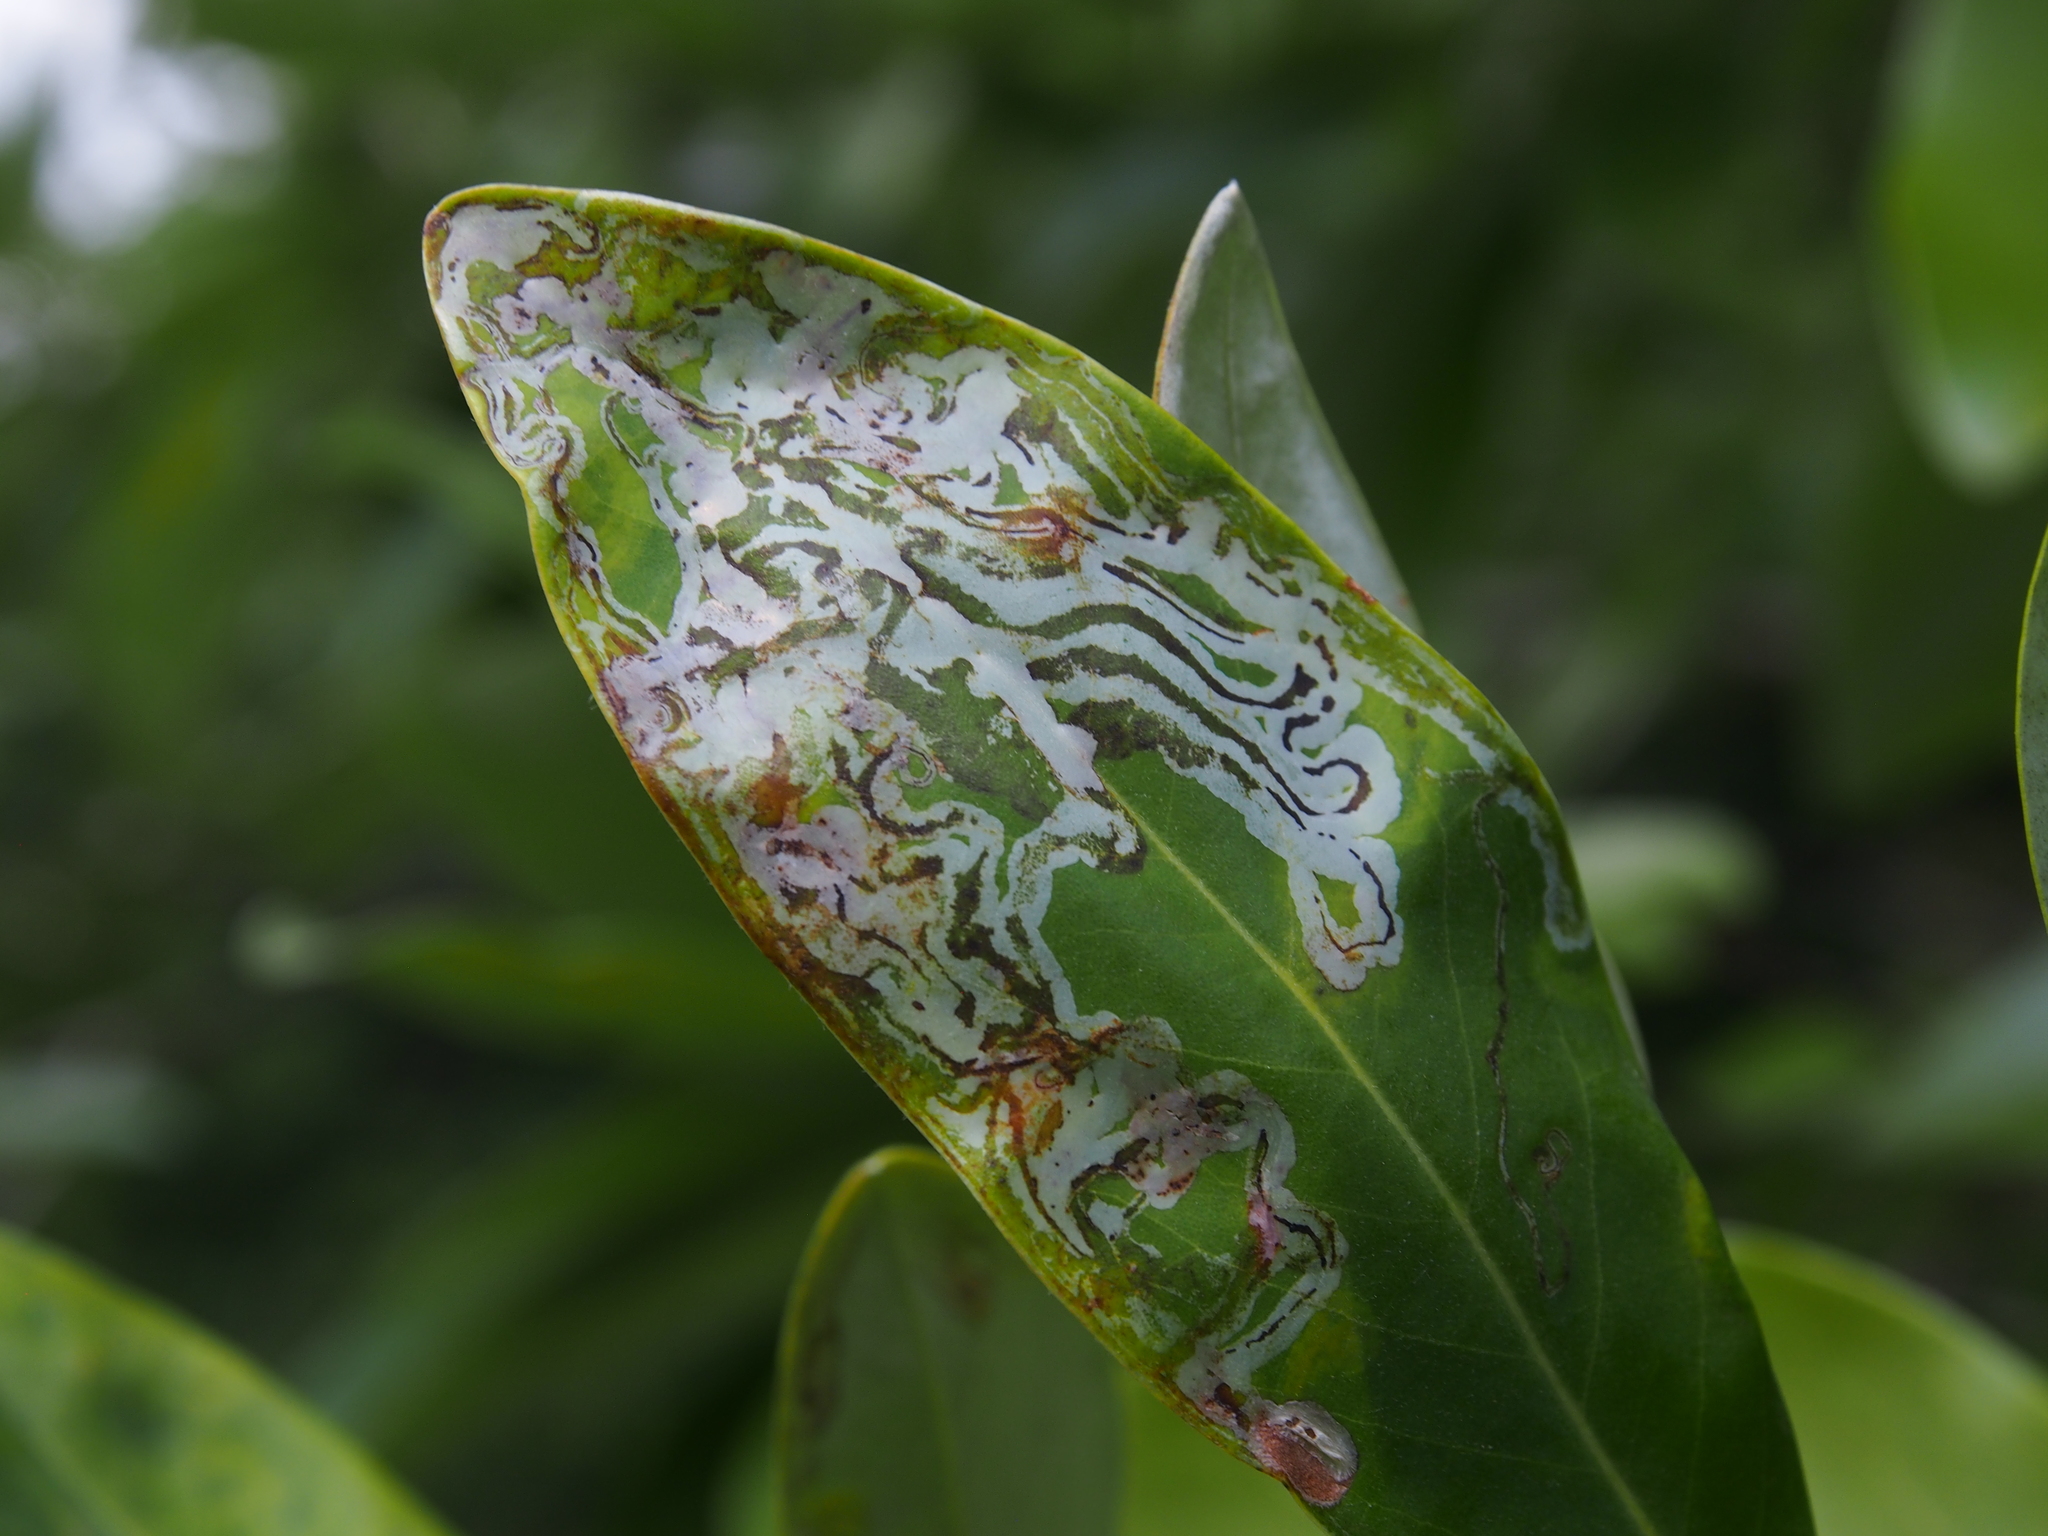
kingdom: Animalia
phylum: Arthropoda
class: Insecta
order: Lepidoptera
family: Gracillariidae
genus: Phyllocnistis
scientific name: Phyllocnistis liriodendronella
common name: Tulip tree leaf miner
